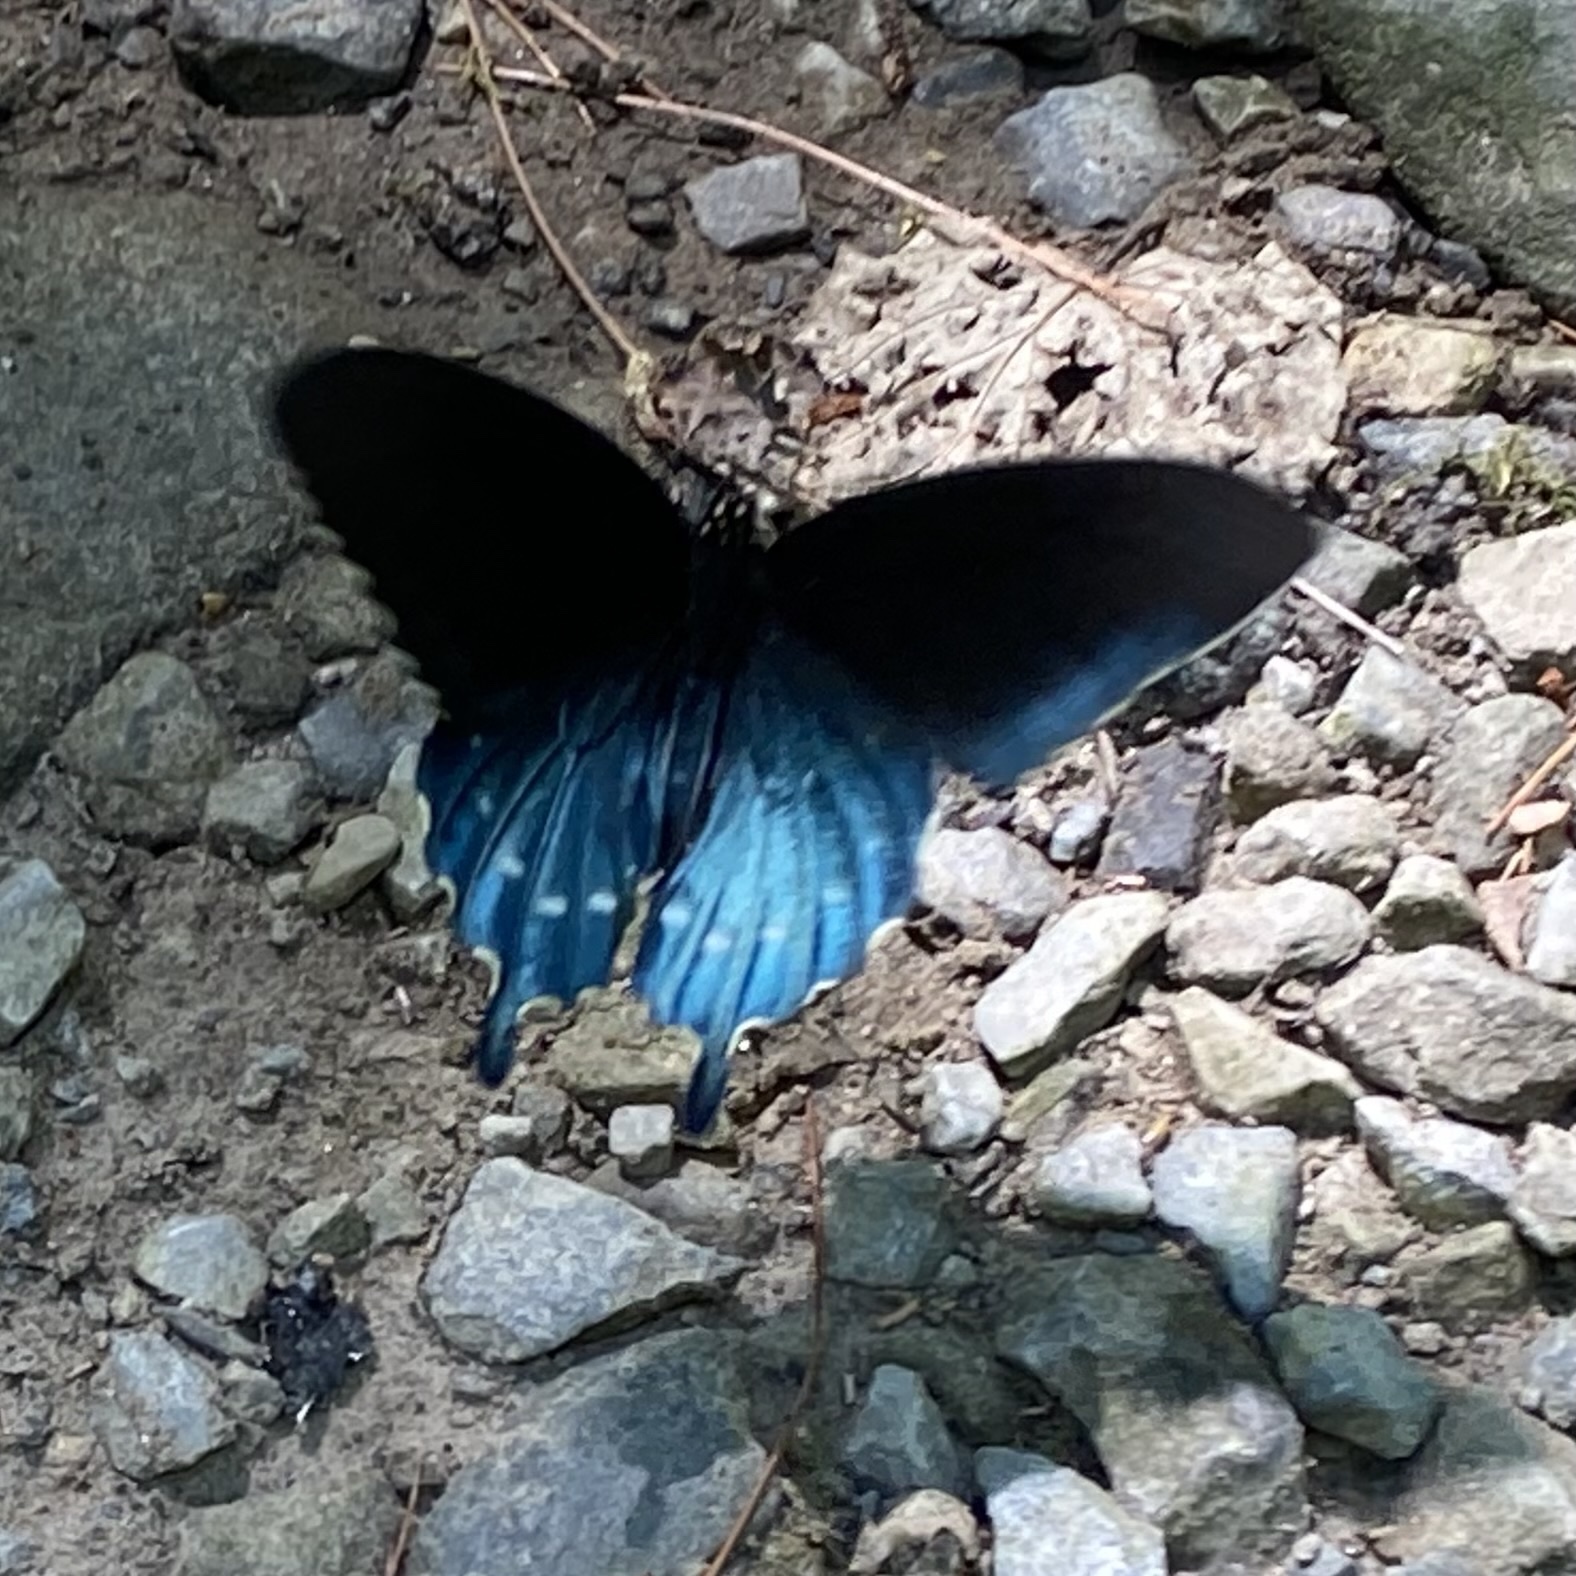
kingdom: Animalia
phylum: Arthropoda
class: Insecta
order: Lepidoptera
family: Papilionidae
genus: Battus
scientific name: Battus philenor
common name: Pipevine swallowtail
